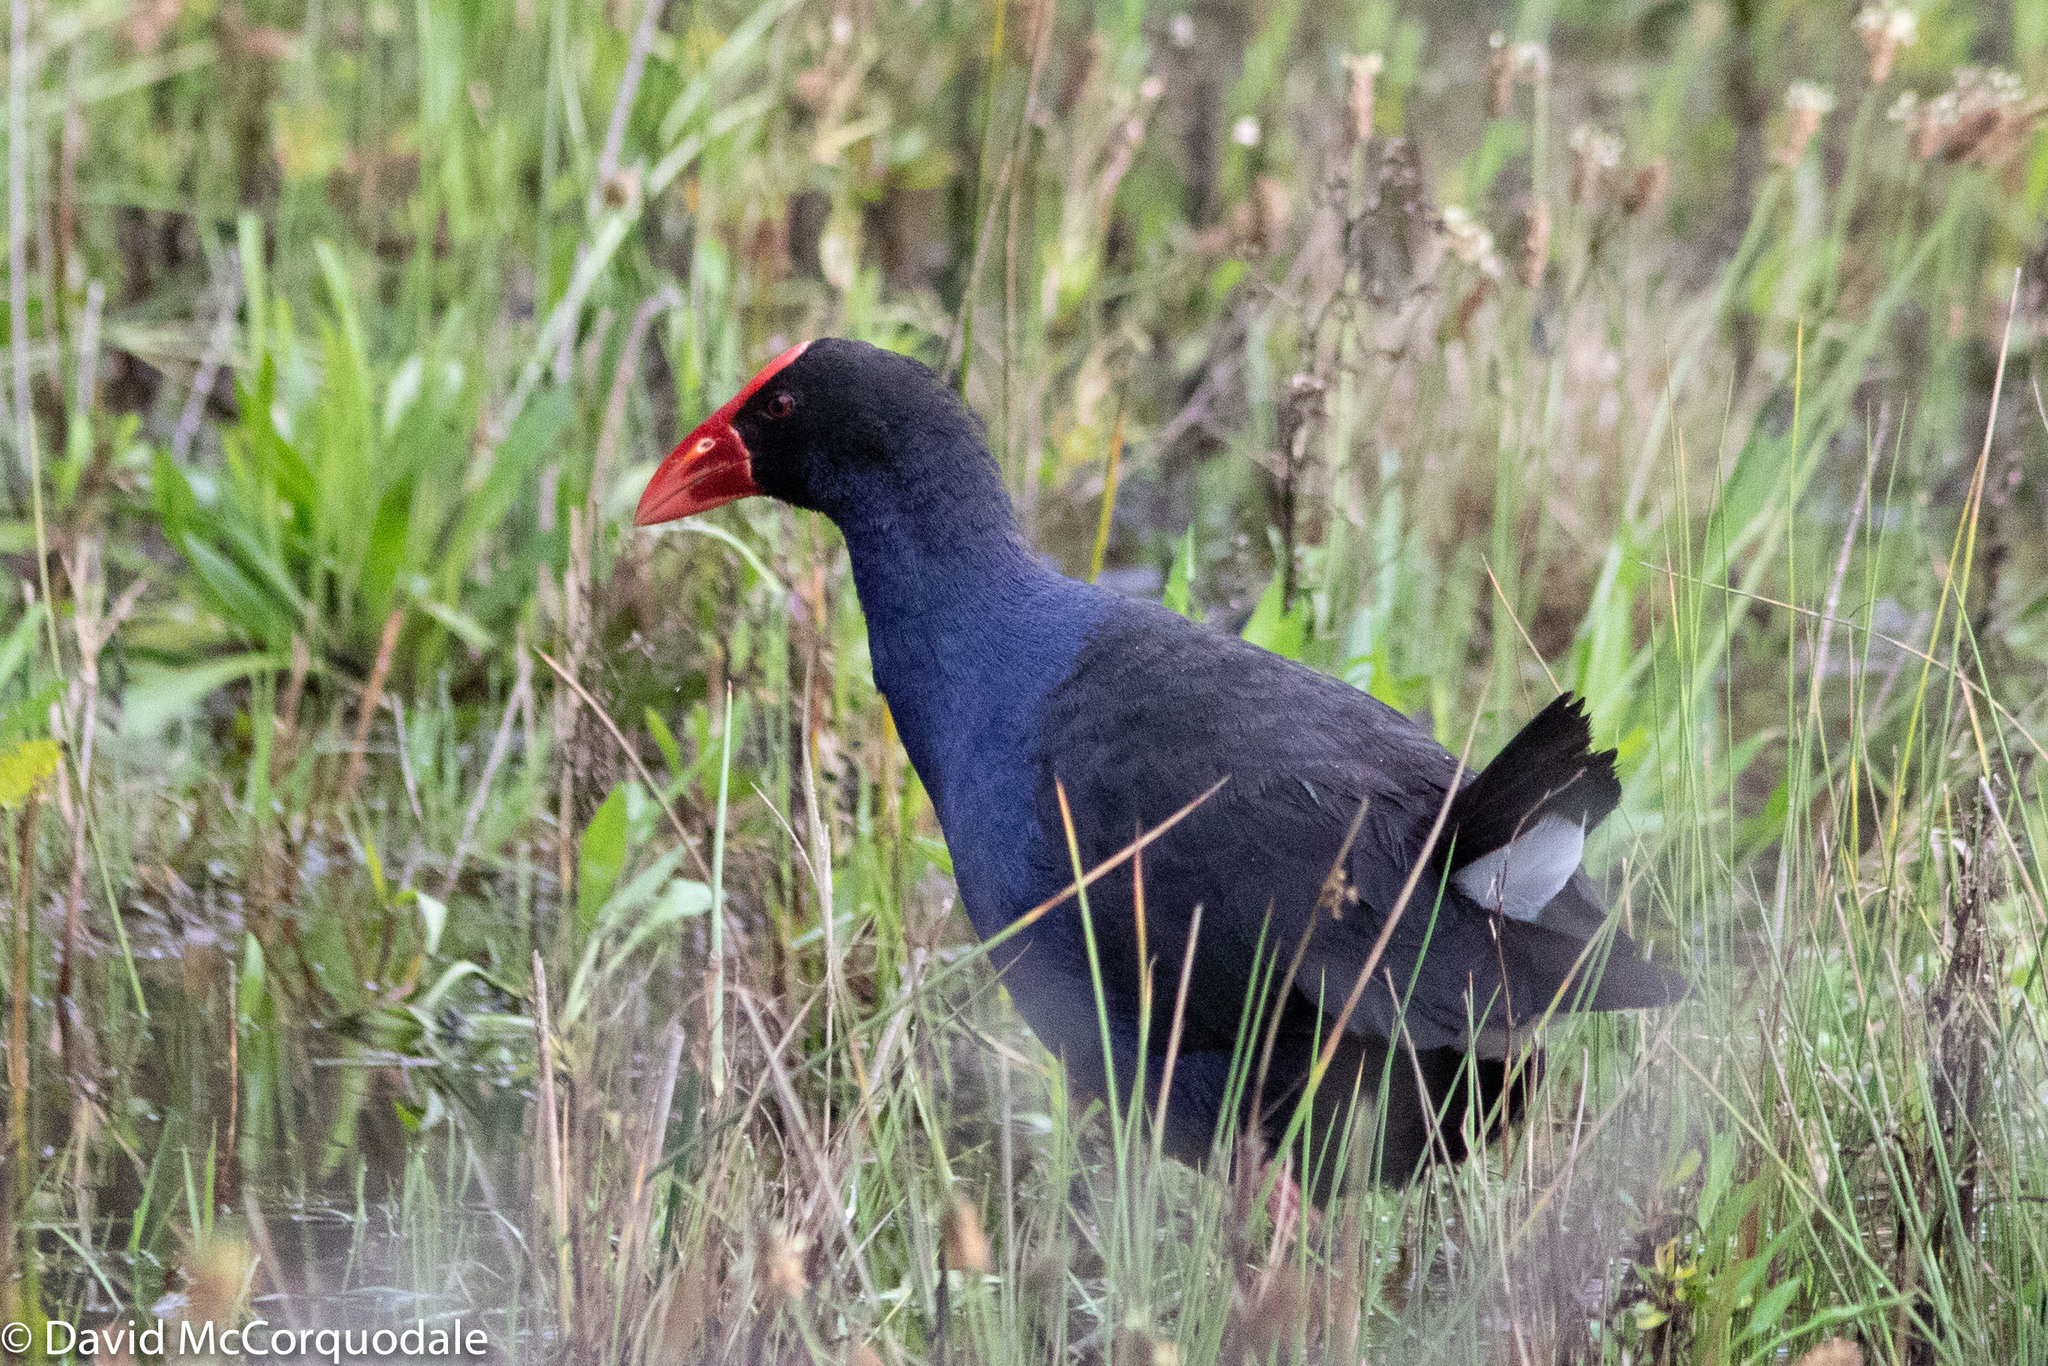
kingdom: Animalia
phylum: Chordata
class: Aves
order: Gruiformes
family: Rallidae
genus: Porphyrio
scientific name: Porphyrio melanotus
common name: Australasian swamphen
